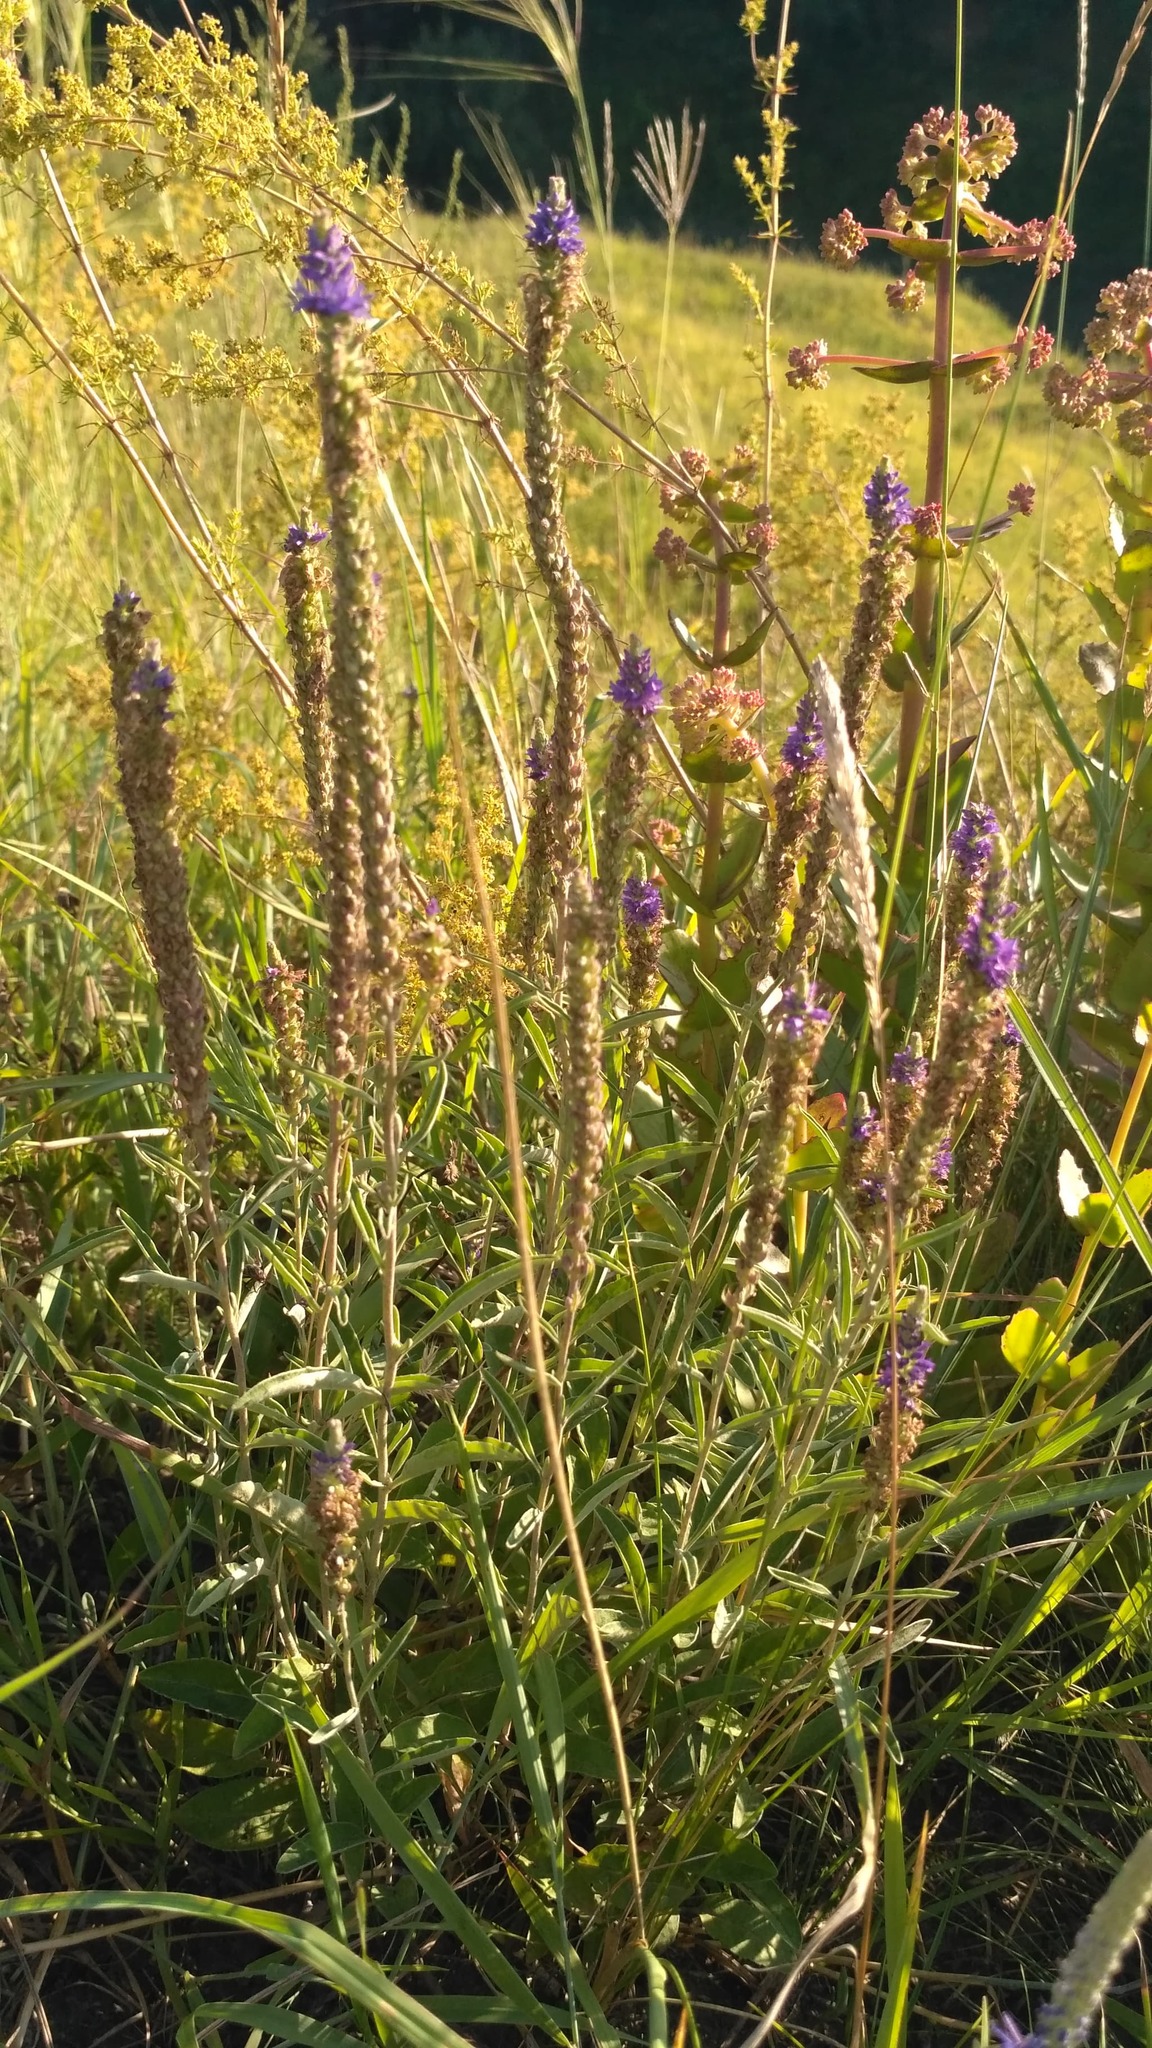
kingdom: Plantae
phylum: Tracheophyta
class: Magnoliopsida
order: Lamiales
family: Plantaginaceae
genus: Veronica
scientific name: Veronica spicata
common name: Spiked speedwell
